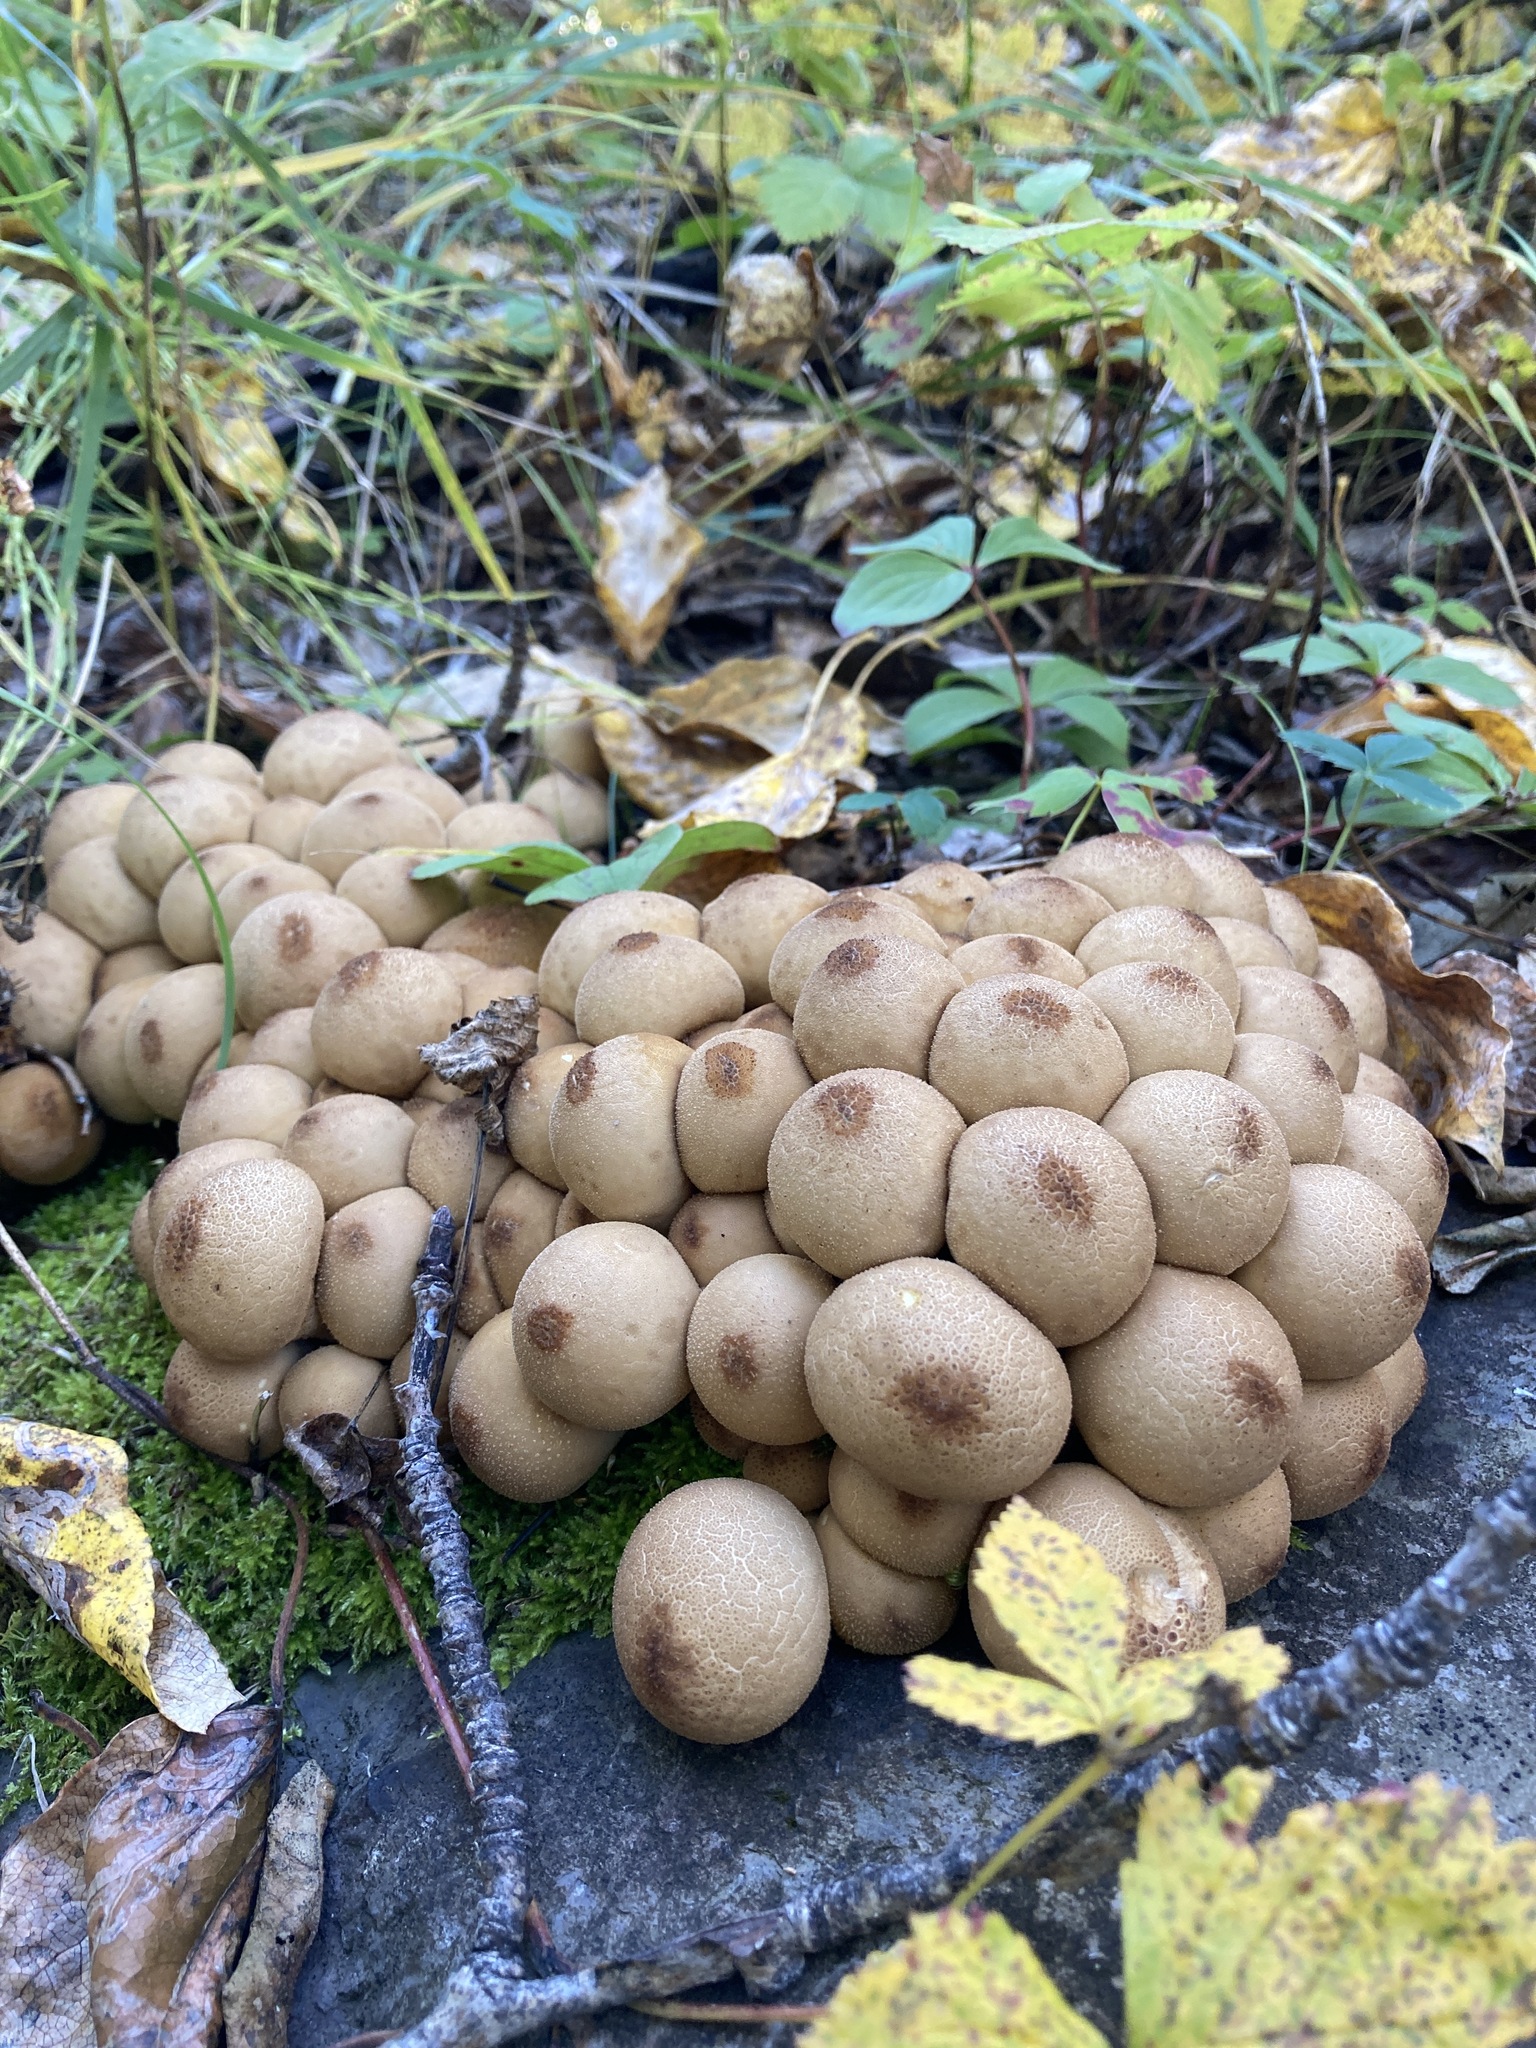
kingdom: Fungi
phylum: Basidiomycota
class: Agaricomycetes
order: Agaricales
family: Lycoperdaceae
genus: Apioperdon
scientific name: Apioperdon pyriforme
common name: Pear-shaped puffball
